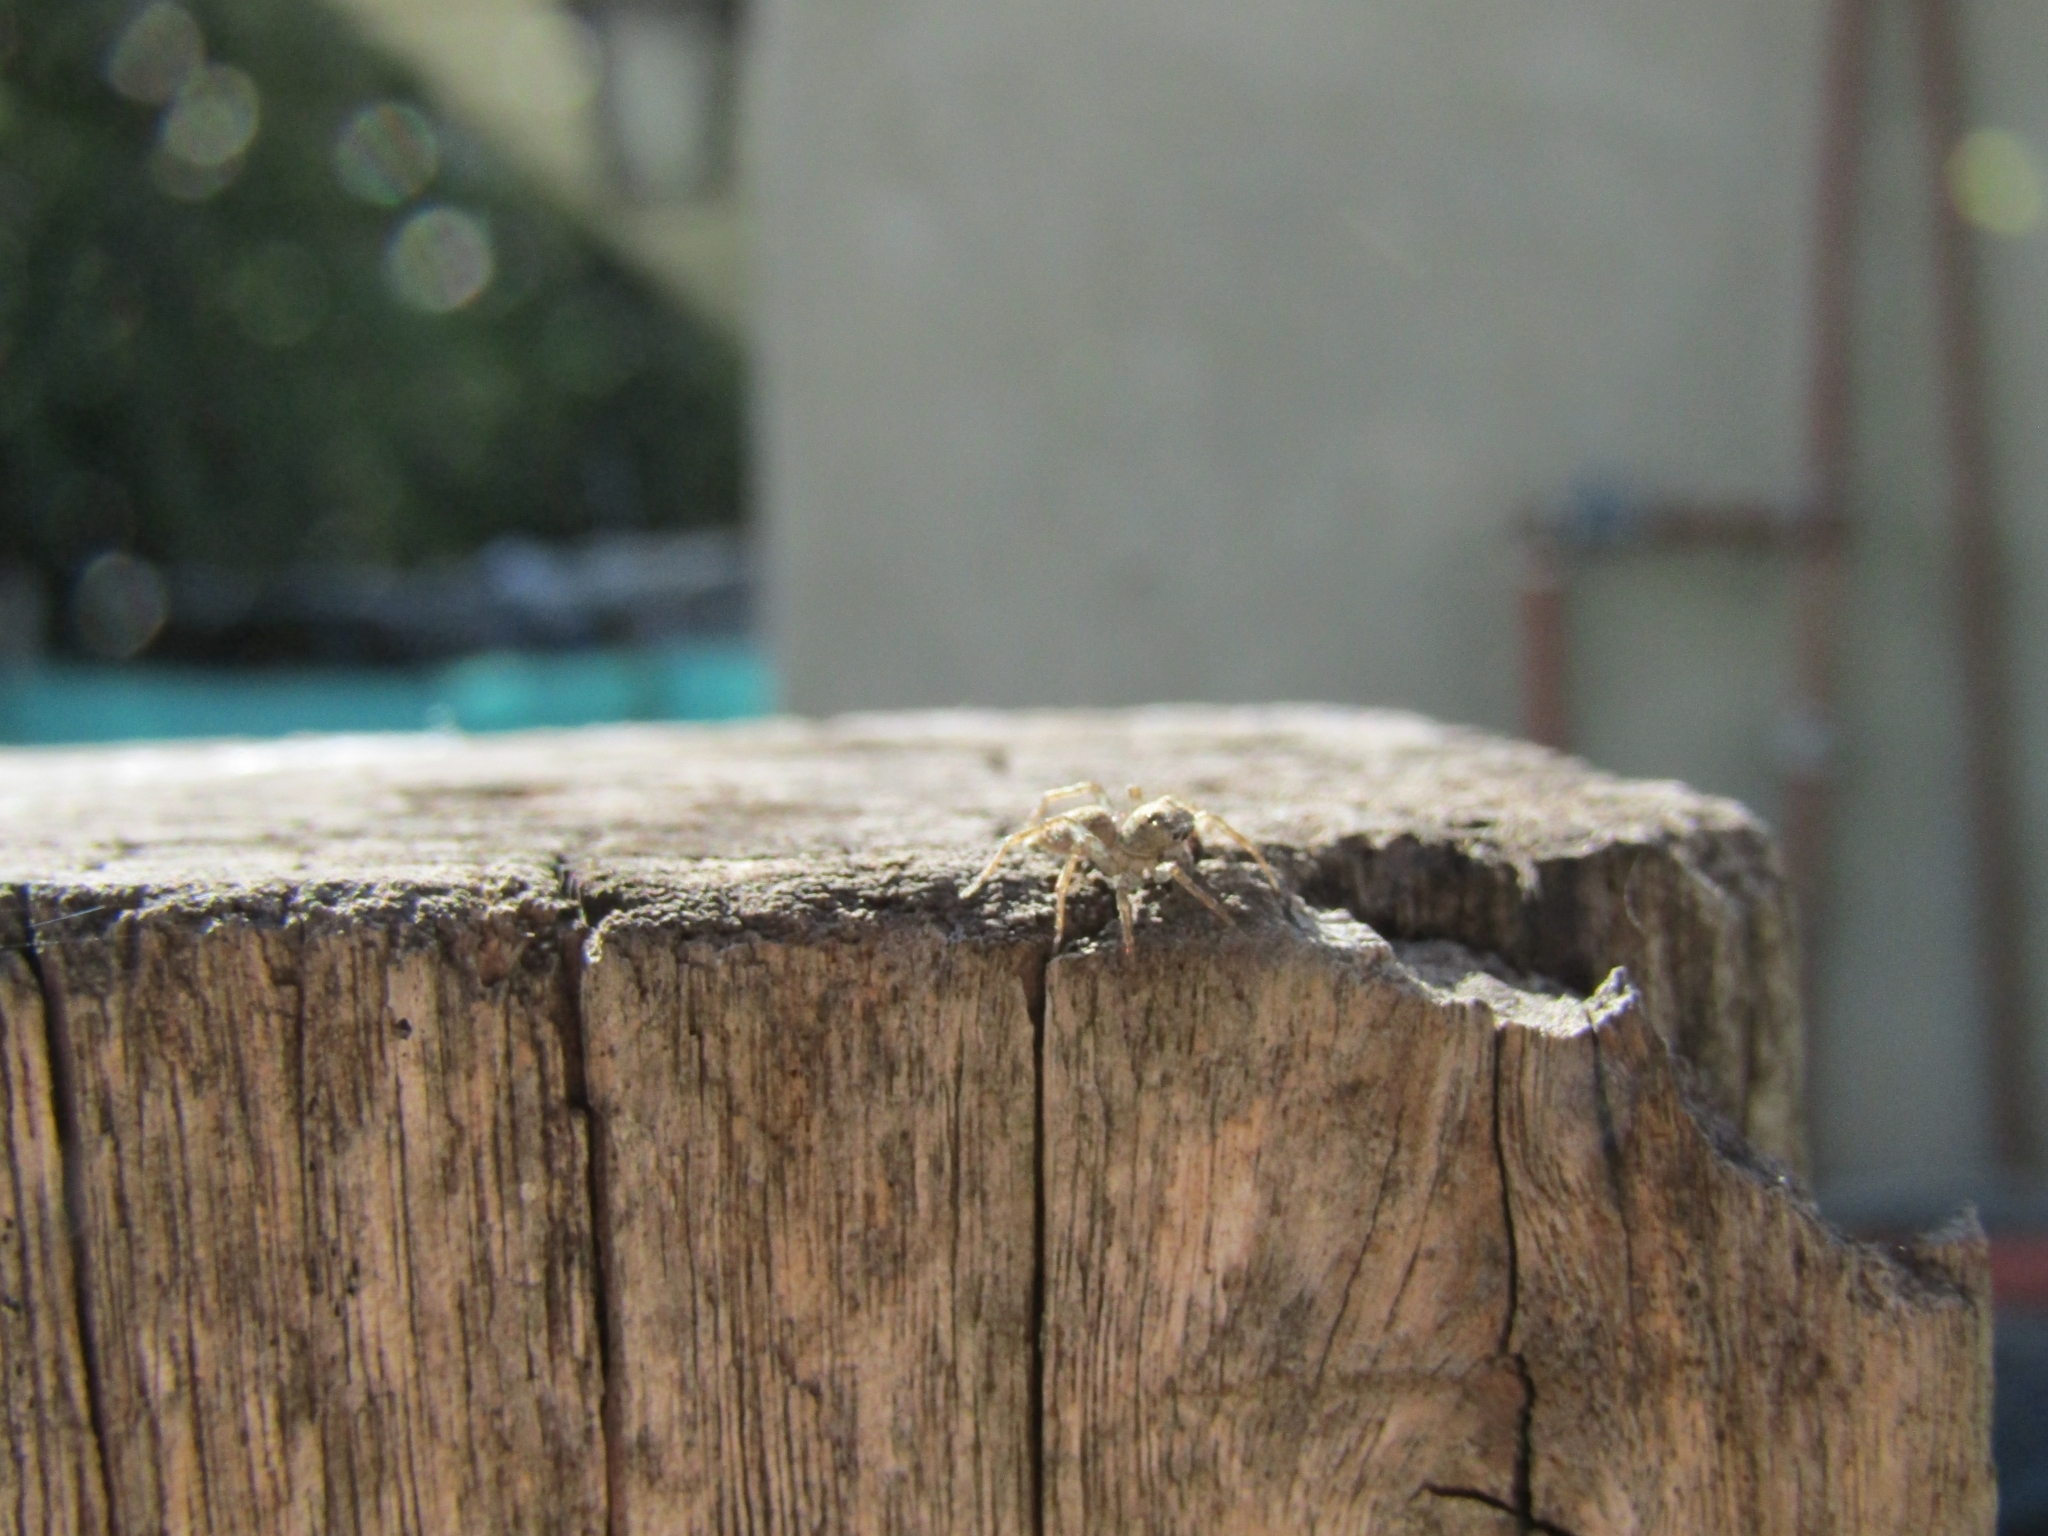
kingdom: Animalia
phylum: Arthropoda
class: Arachnida
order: Araneae
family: Salticidae
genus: Saitis
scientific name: Saitis variegatus
